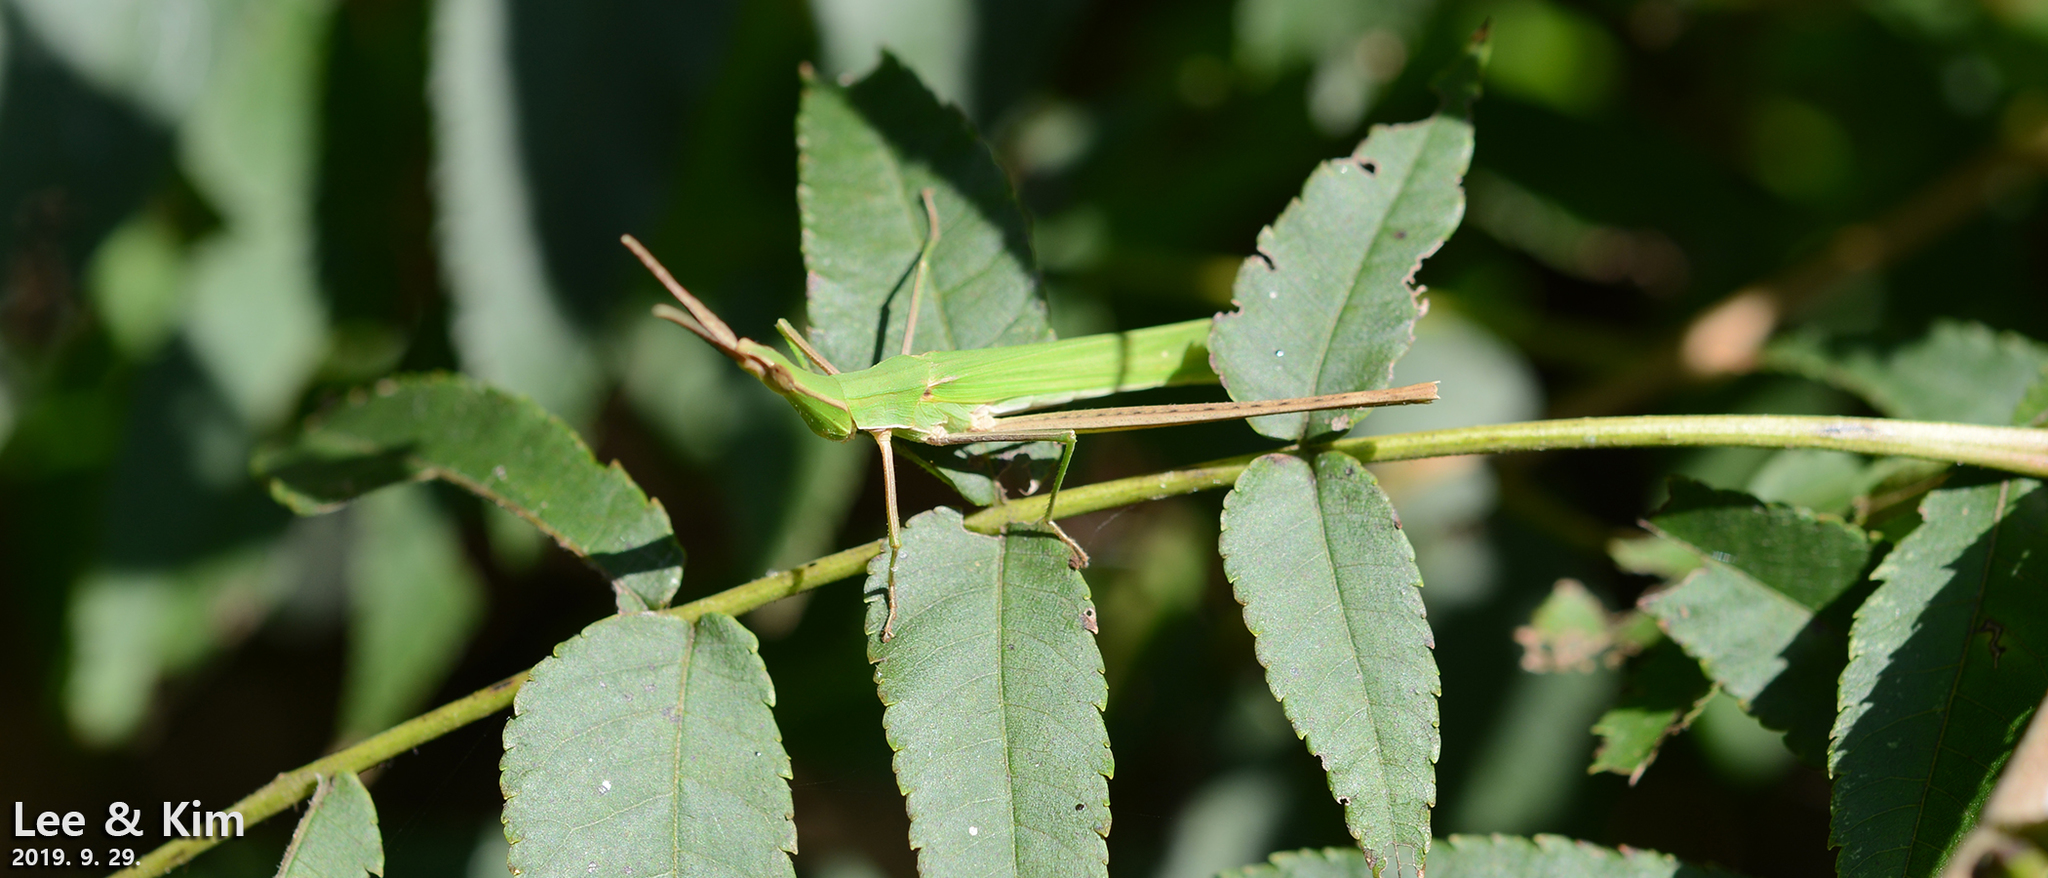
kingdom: Animalia
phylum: Arthropoda
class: Insecta
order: Orthoptera
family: Acrididae
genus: Acrida
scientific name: Acrida cinerea
